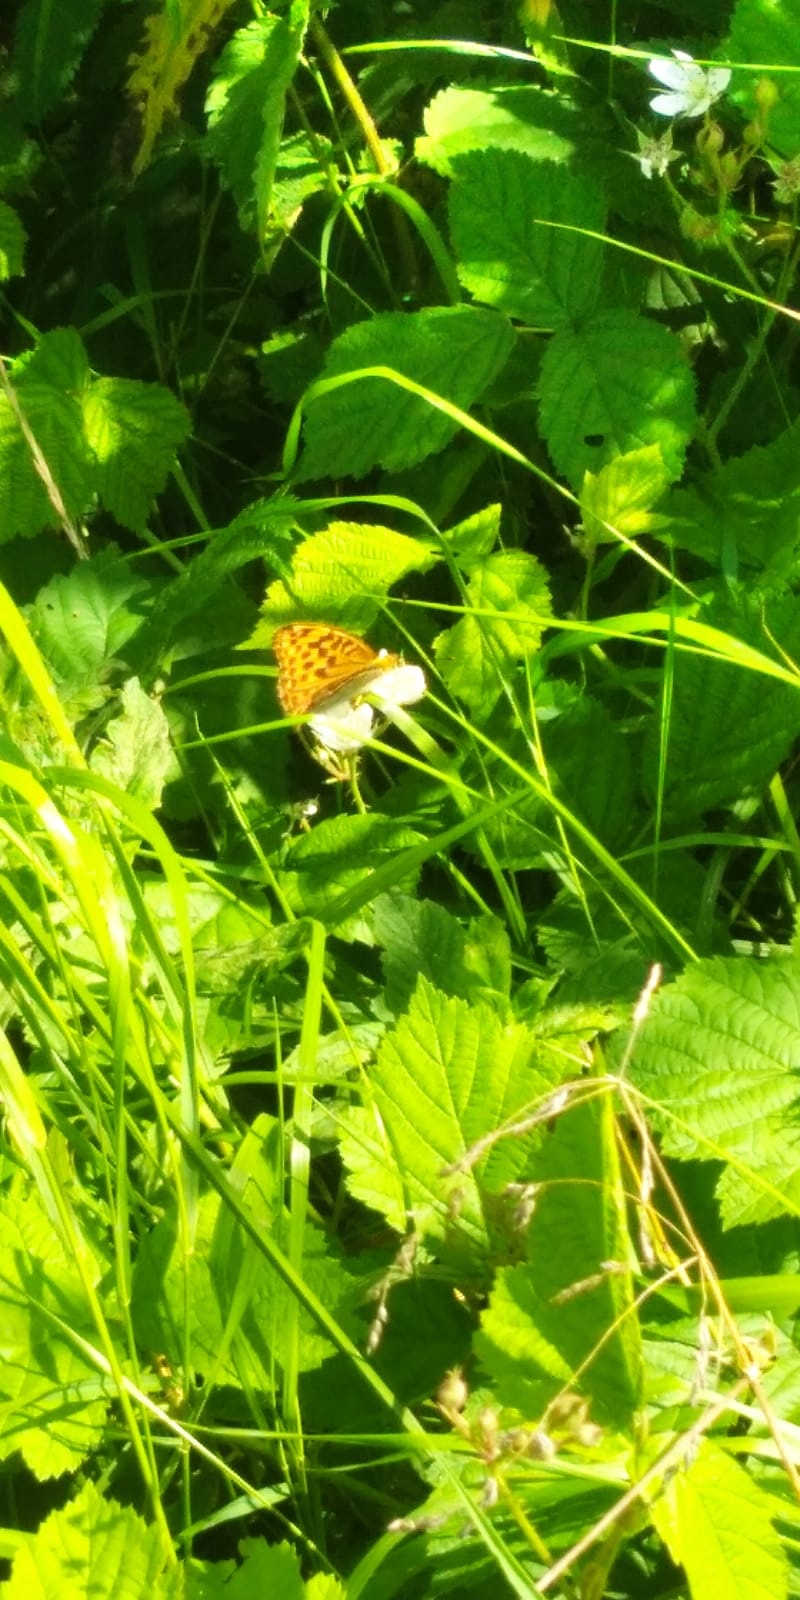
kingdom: Animalia
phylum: Arthropoda
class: Insecta
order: Lepidoptera
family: Nymphalidae
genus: Argynnis
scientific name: Argynnis paphia
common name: Silver-washed fritillary
